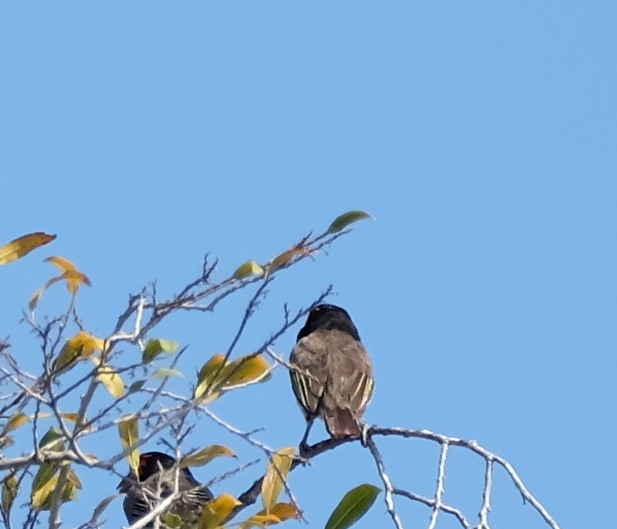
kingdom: Animalia
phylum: Chordata
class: Aves
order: Piciformes
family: Lybiidae
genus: Lybius
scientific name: Lybius torquatus
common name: Black-collared barbet
